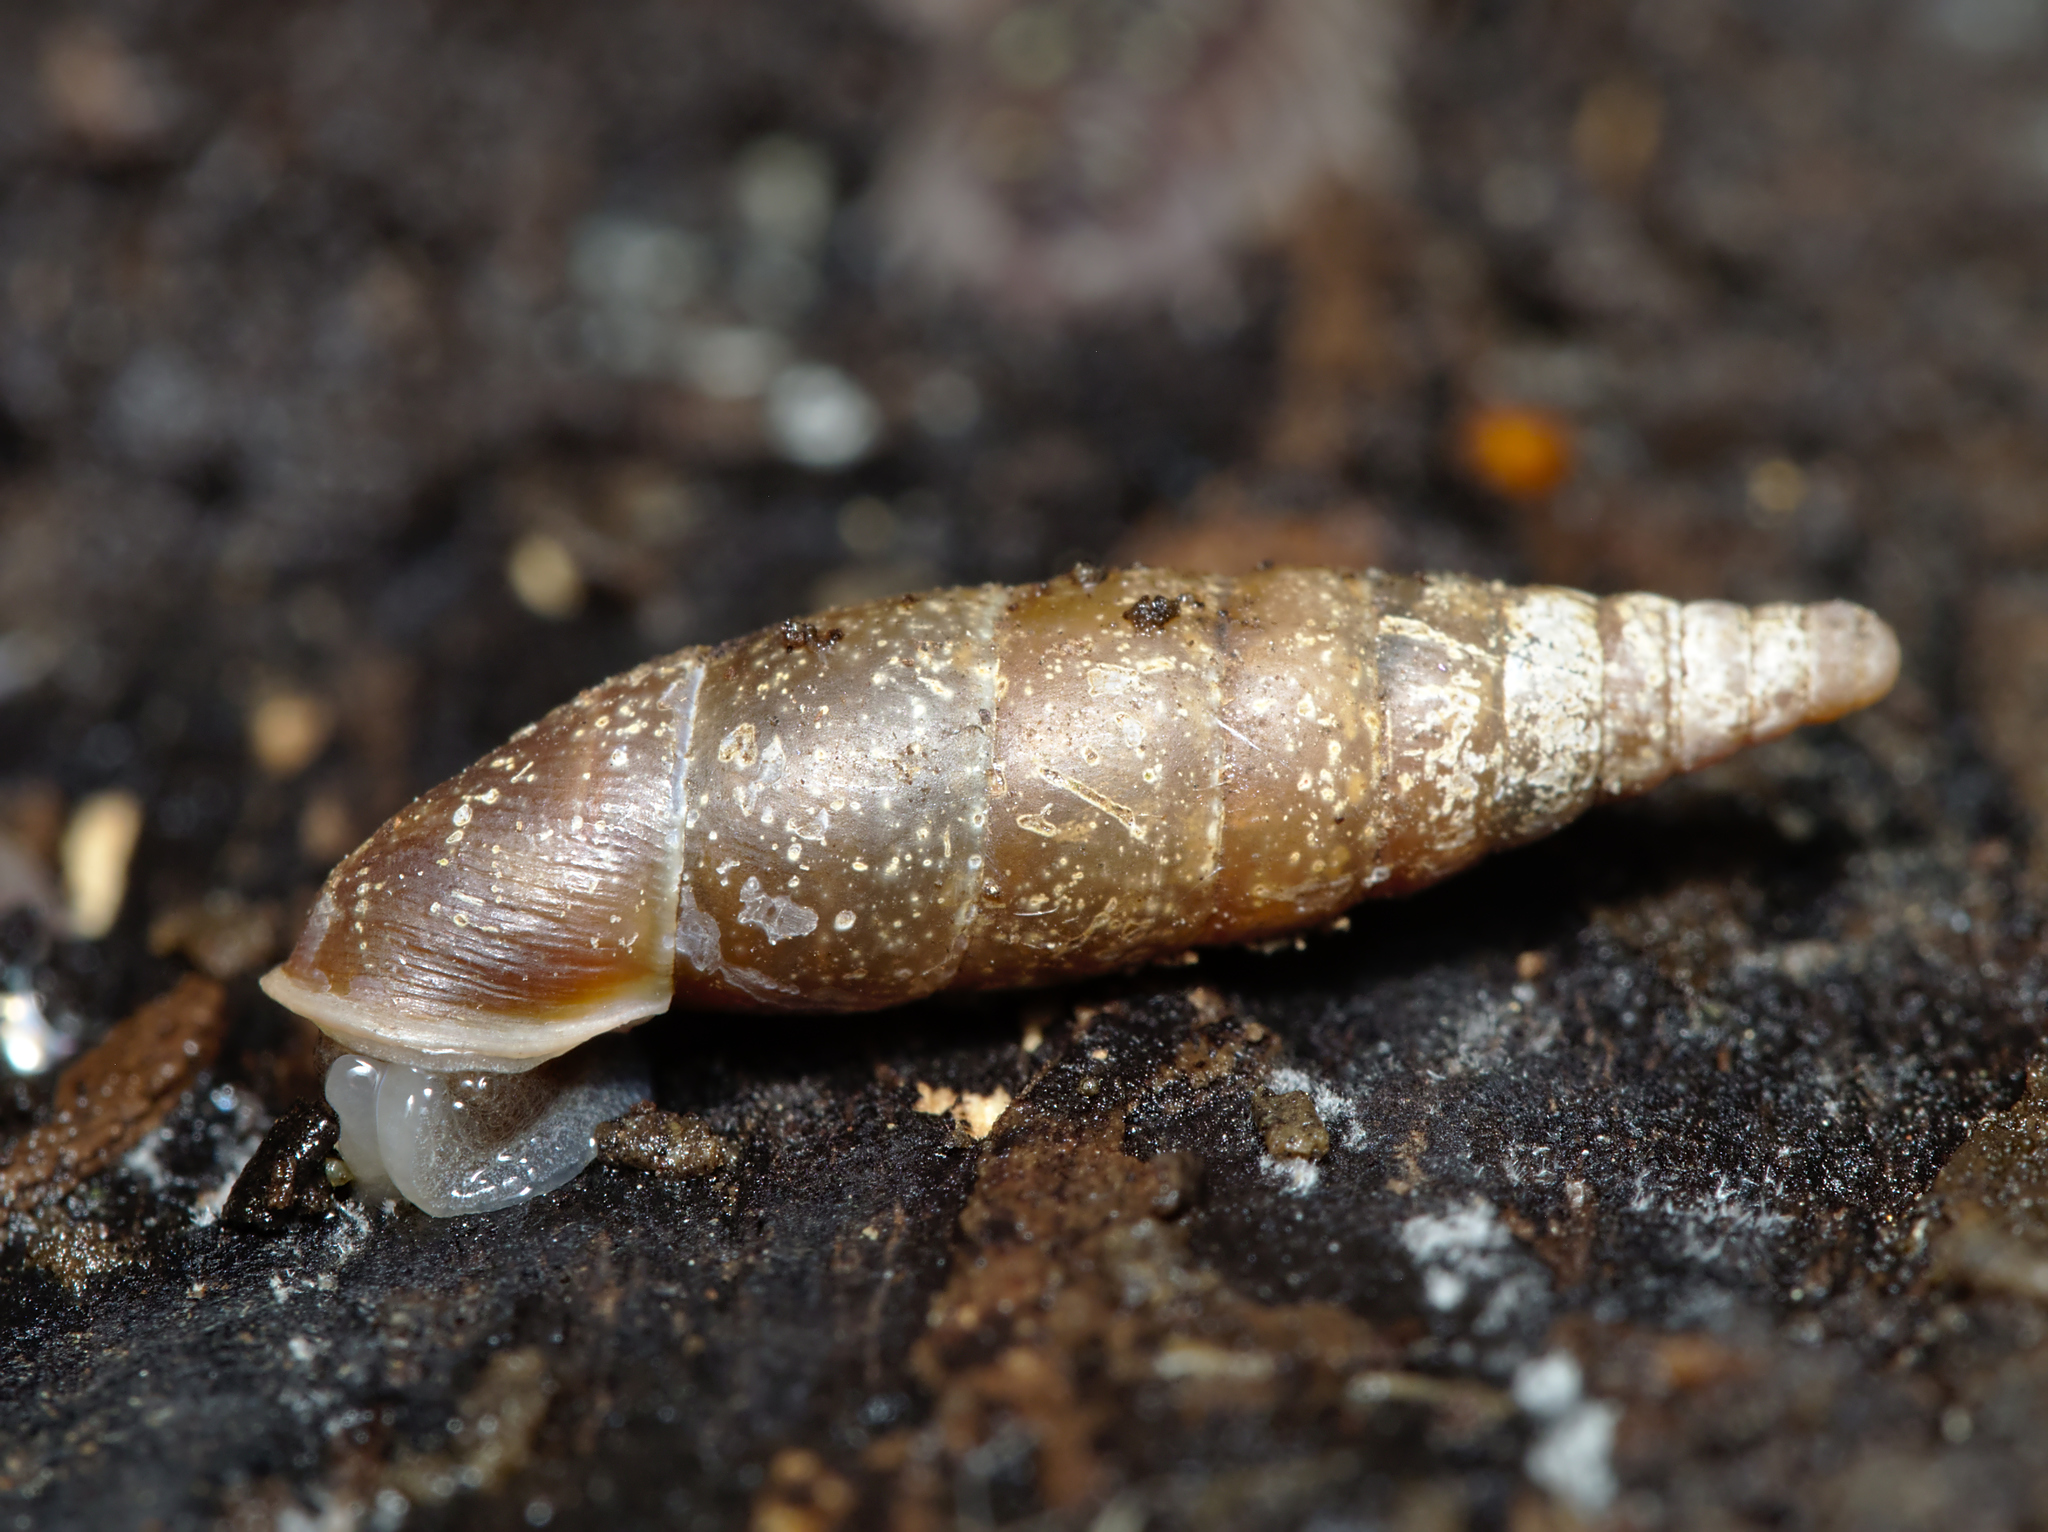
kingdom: Animalia
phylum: Mollusca
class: Gastropoda
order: Stylommatophora
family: Clausiliidae
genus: Cochlodina
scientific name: Cochlodina laminata
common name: Plaited door snail
